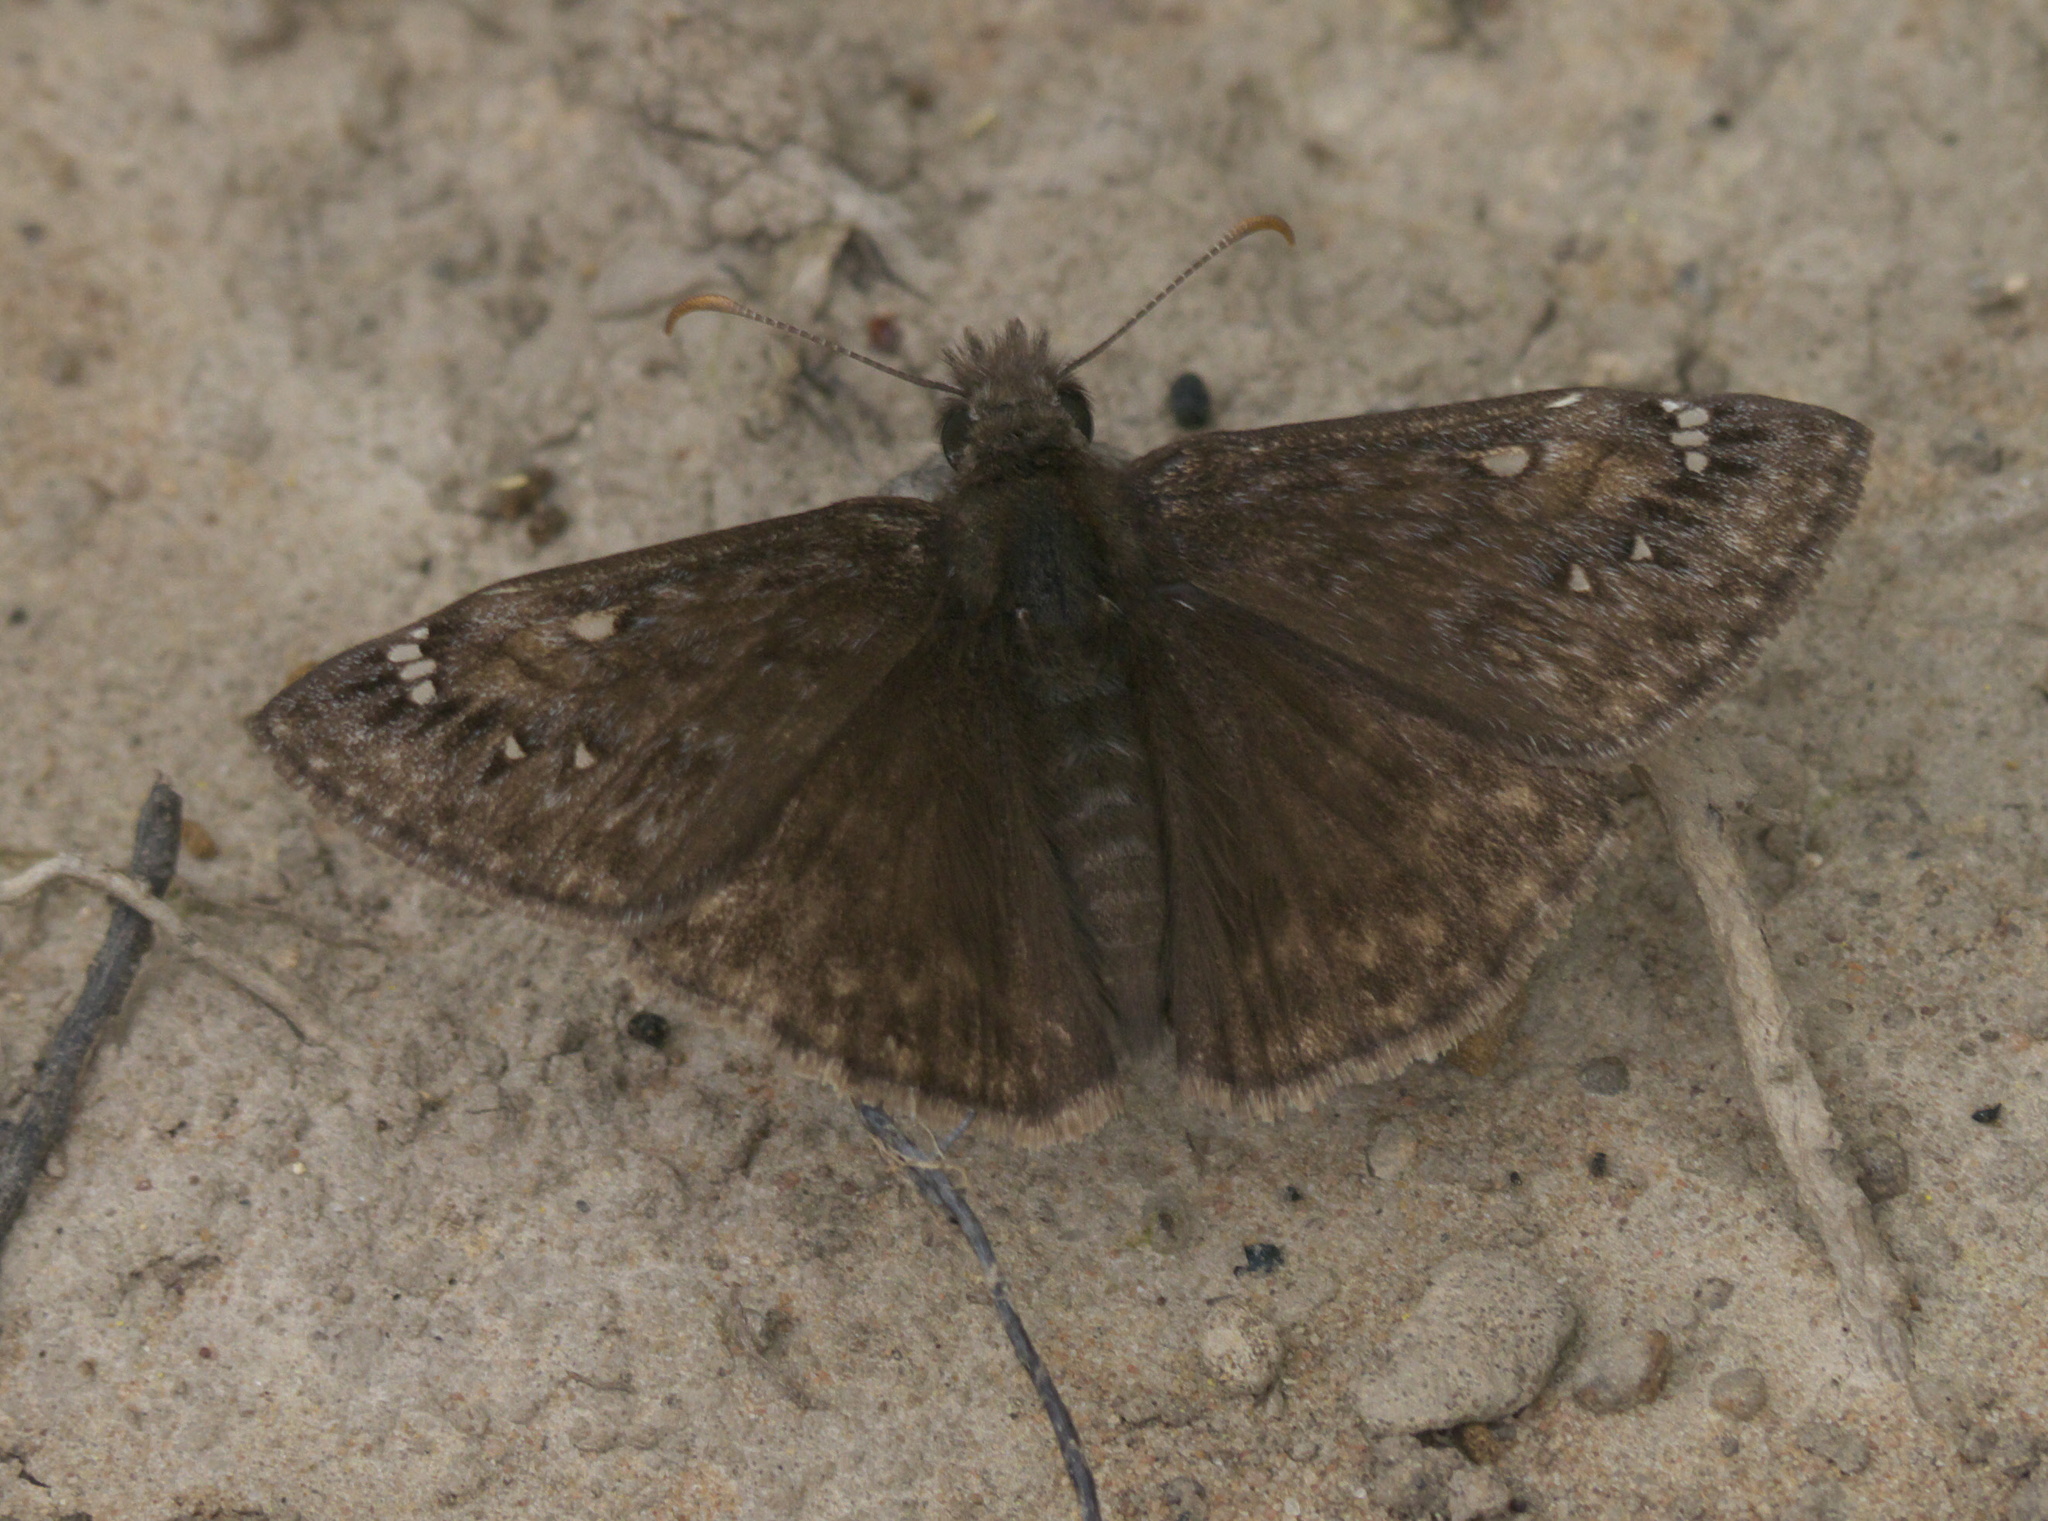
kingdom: Animalia
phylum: Arthropoda
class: Insecta
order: Lepidoptera
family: Hesperiidae
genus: Erynnis
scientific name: Erynnis juvenalis
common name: Juvenal's duskywing
